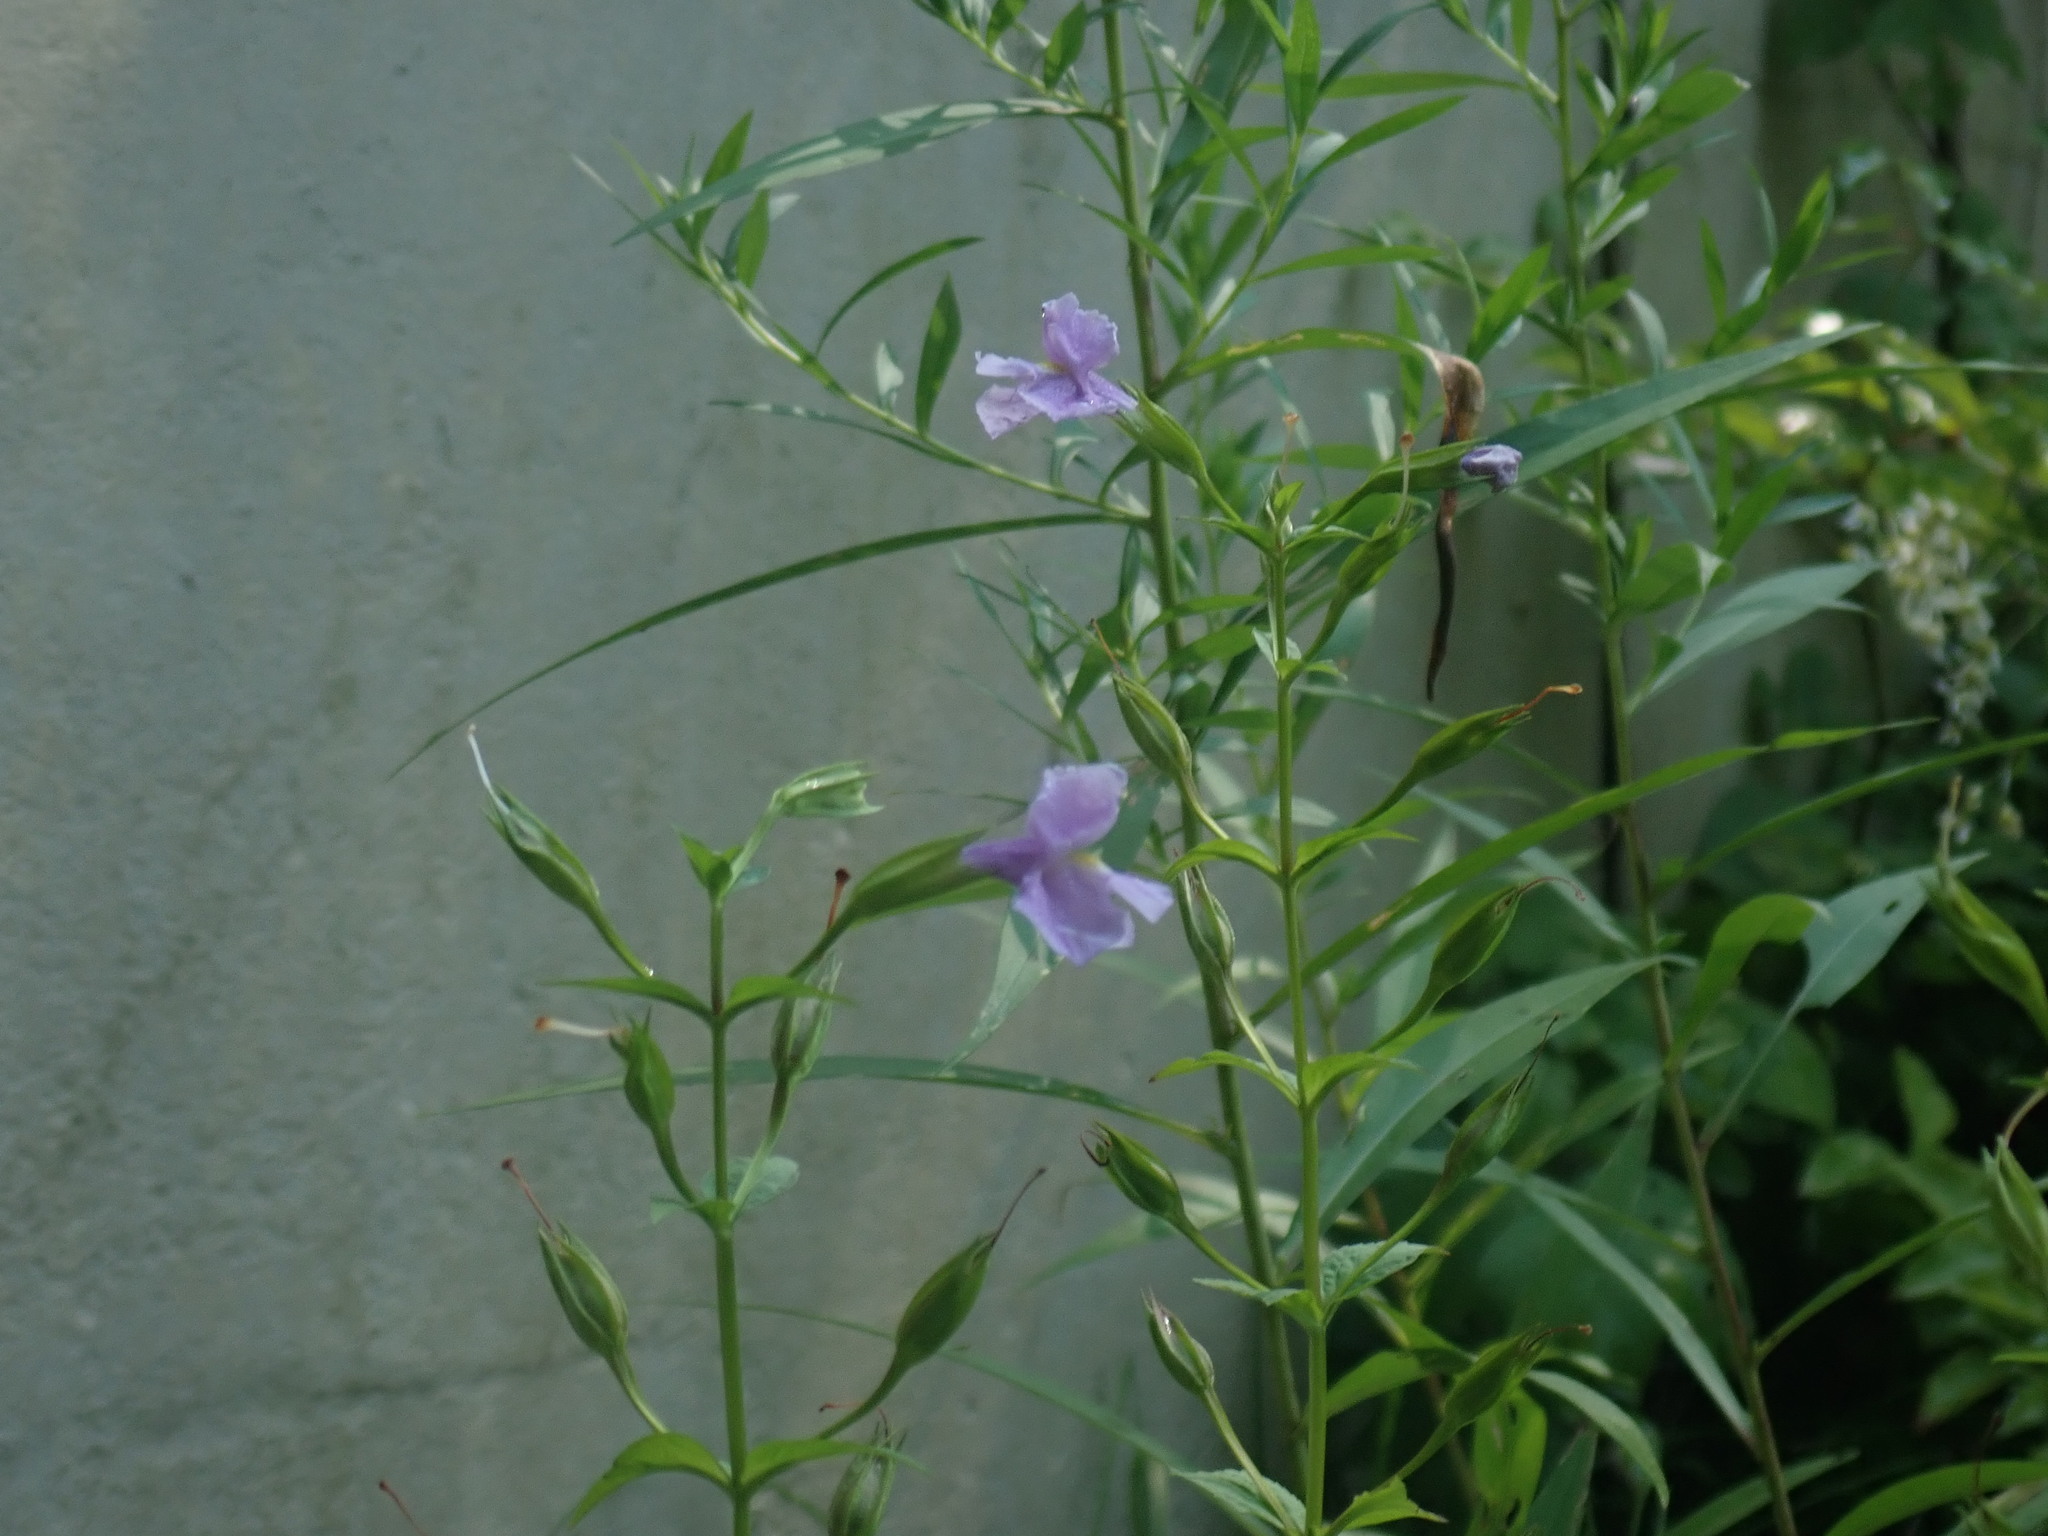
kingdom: Plantae
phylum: Tracheophyta
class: Magnoliopsida
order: Lamiales
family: Phrymaceae
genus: Mimulus
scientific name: Mimulus ringens
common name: Allegheny monkeyflower
